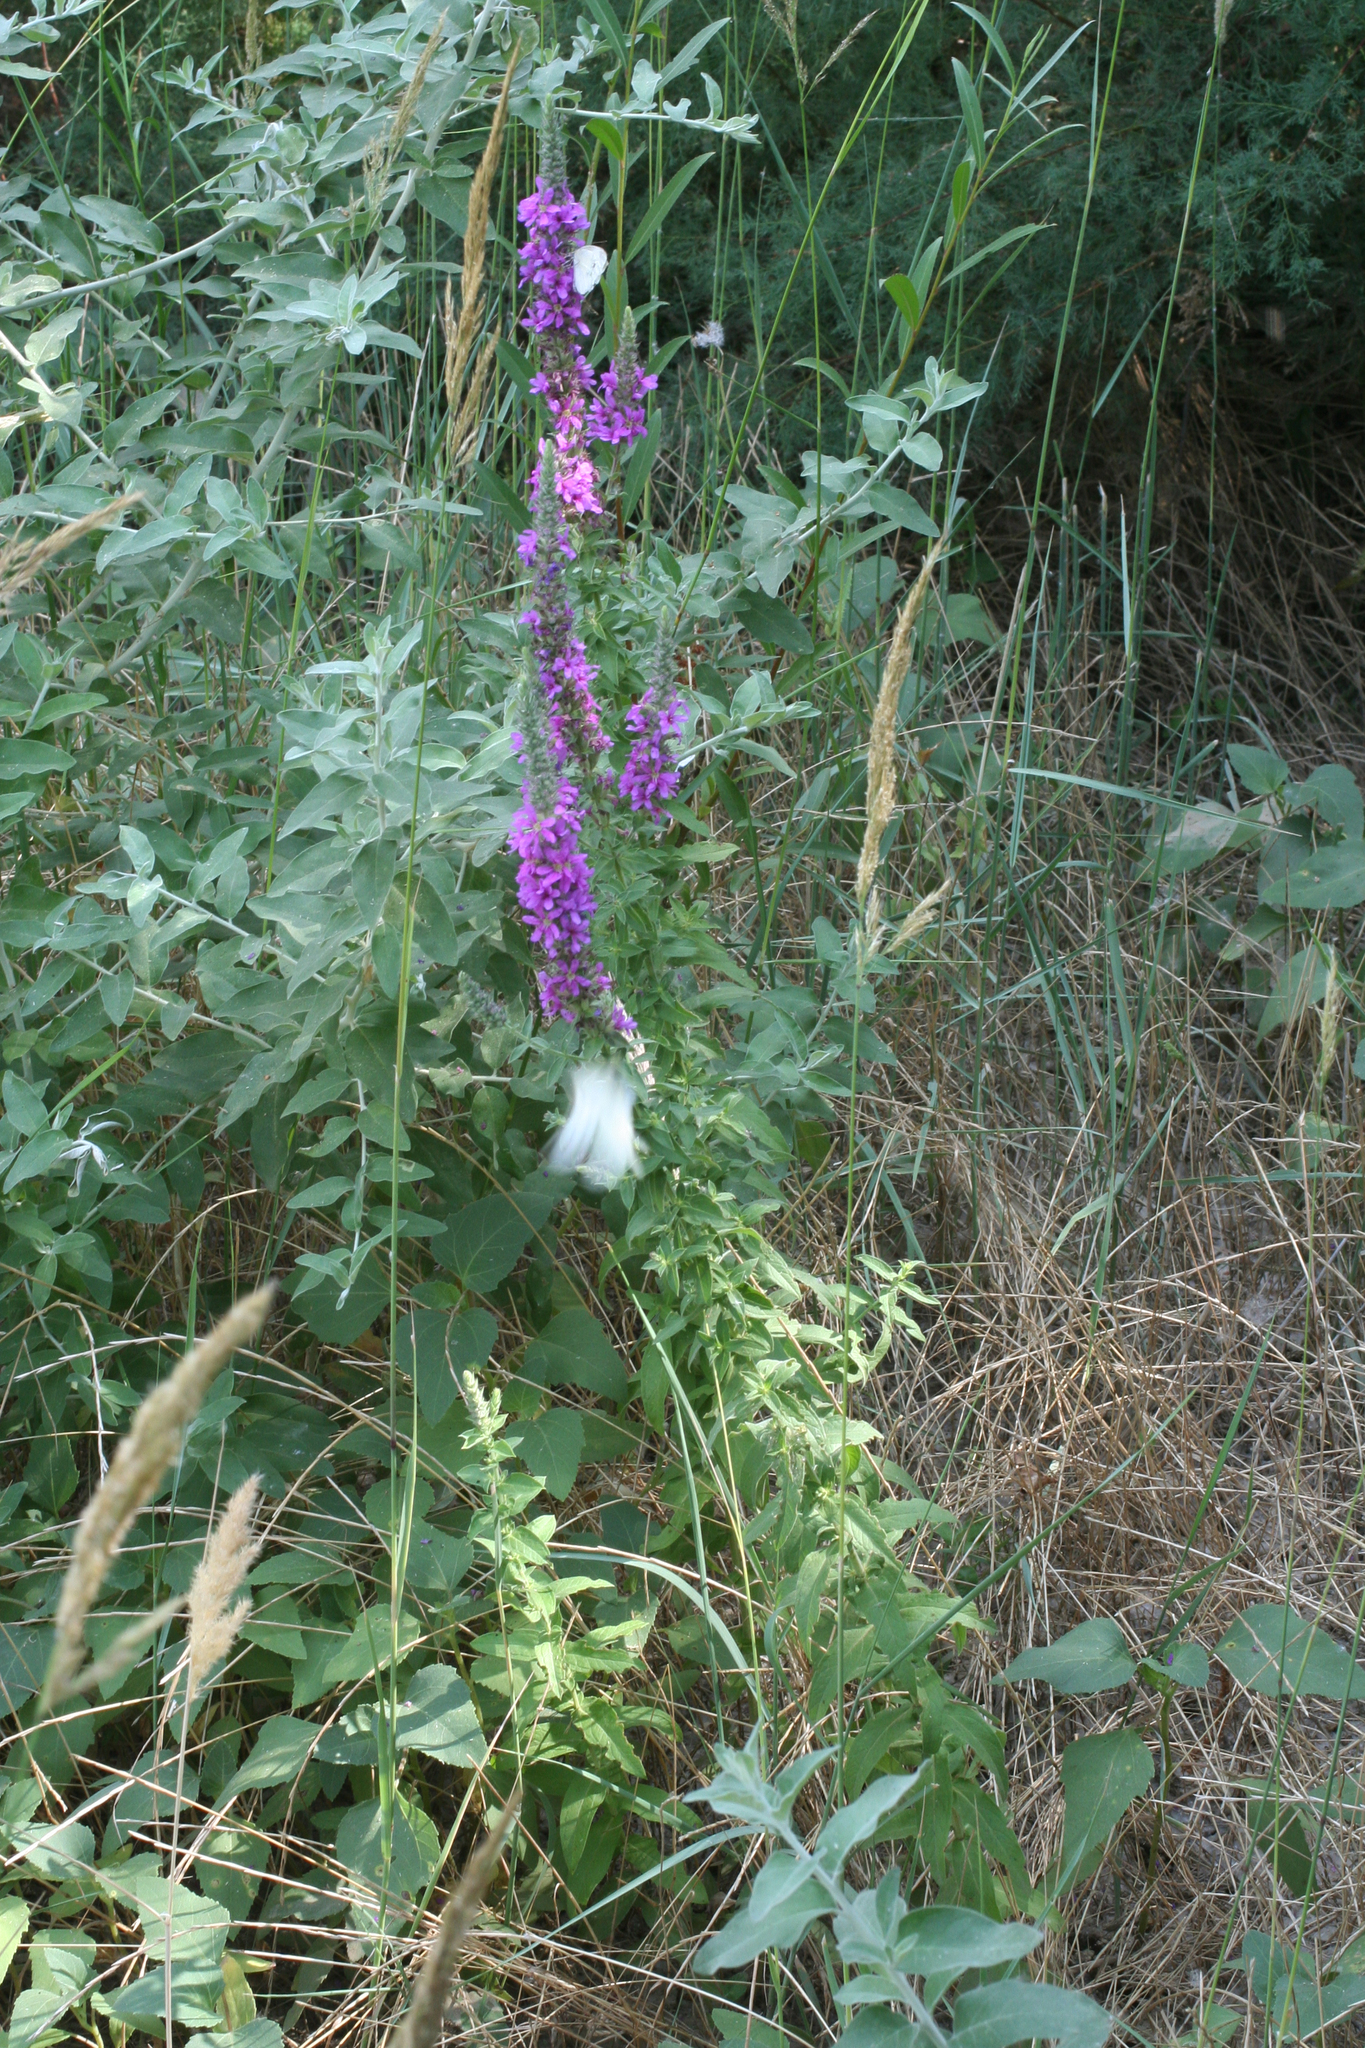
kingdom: Plantae
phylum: Tracheophyta
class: Magnoliopsida
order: Myrtales
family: Lythraceae
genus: Lythrum
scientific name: Lythrum salicaria
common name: Purple loosestrife
